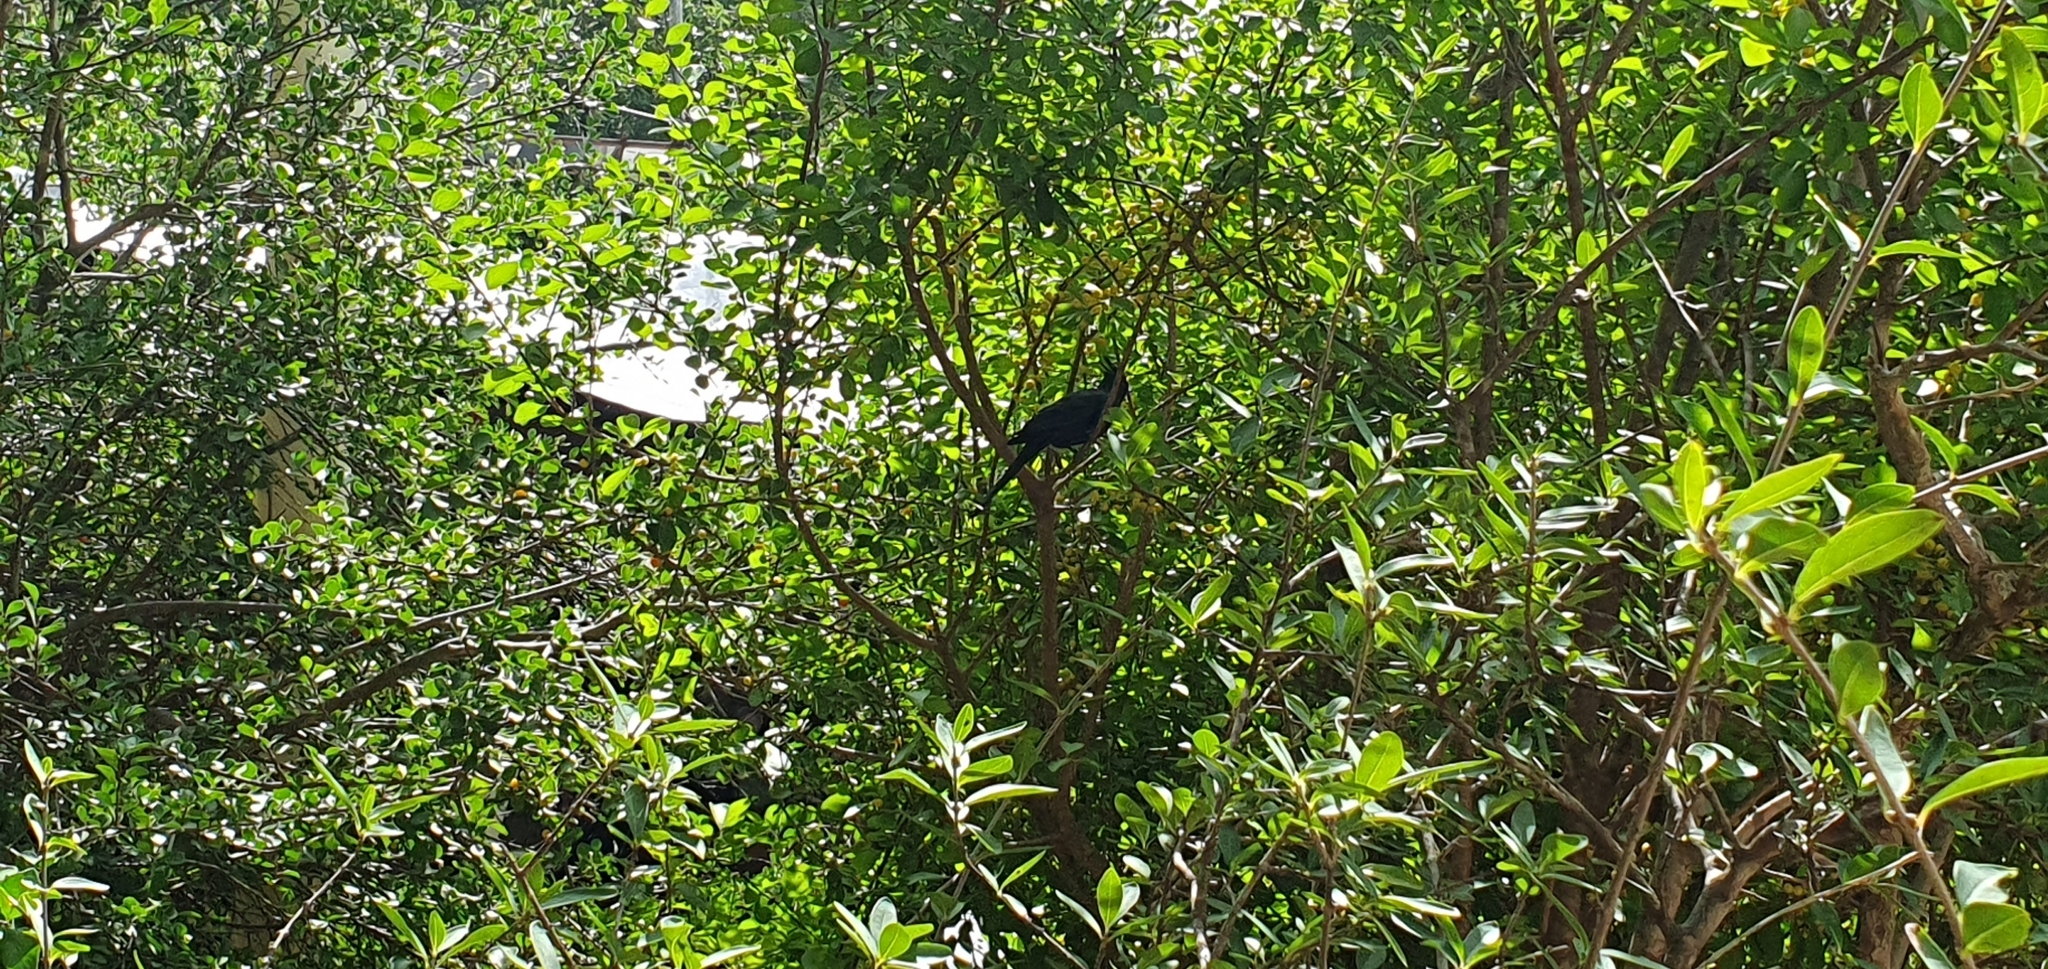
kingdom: Animalia
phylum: Chordata
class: Aves
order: Passeriformes
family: Ptilogonatidae
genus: Phainopepla
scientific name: Phainopepla nitens
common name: Phainopepla
